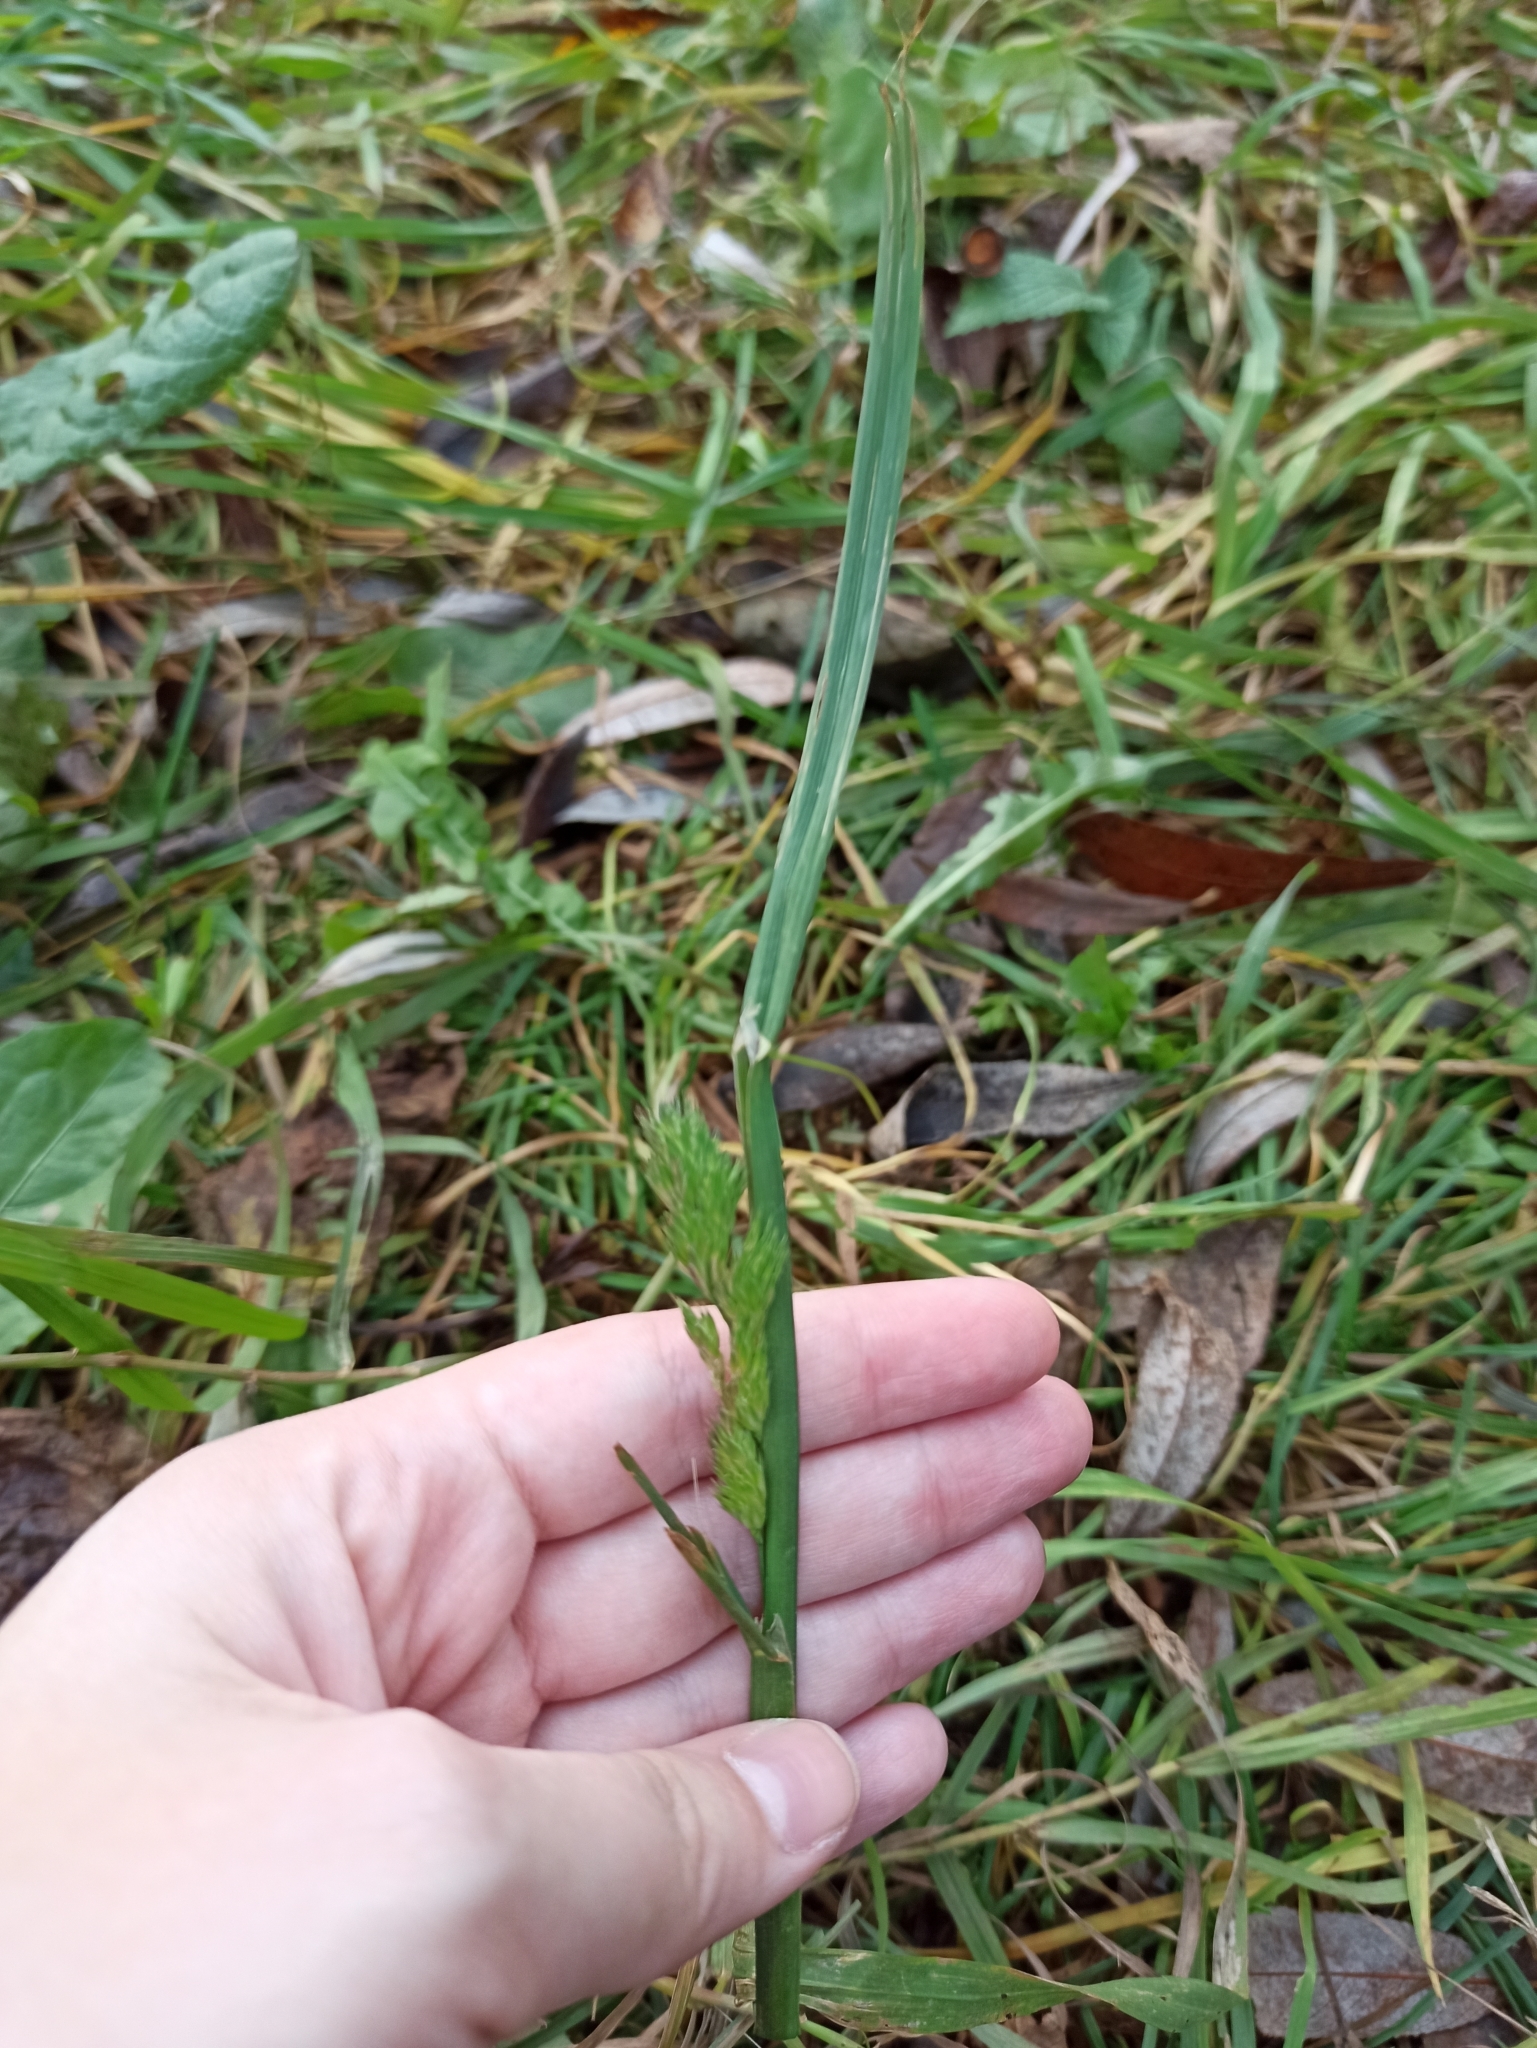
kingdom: Plantae
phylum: Tracheophyta
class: Liliopsida
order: Poales
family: Poaceae
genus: Dactylis
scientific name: Dactylis glomerata
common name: Orchardgrass
